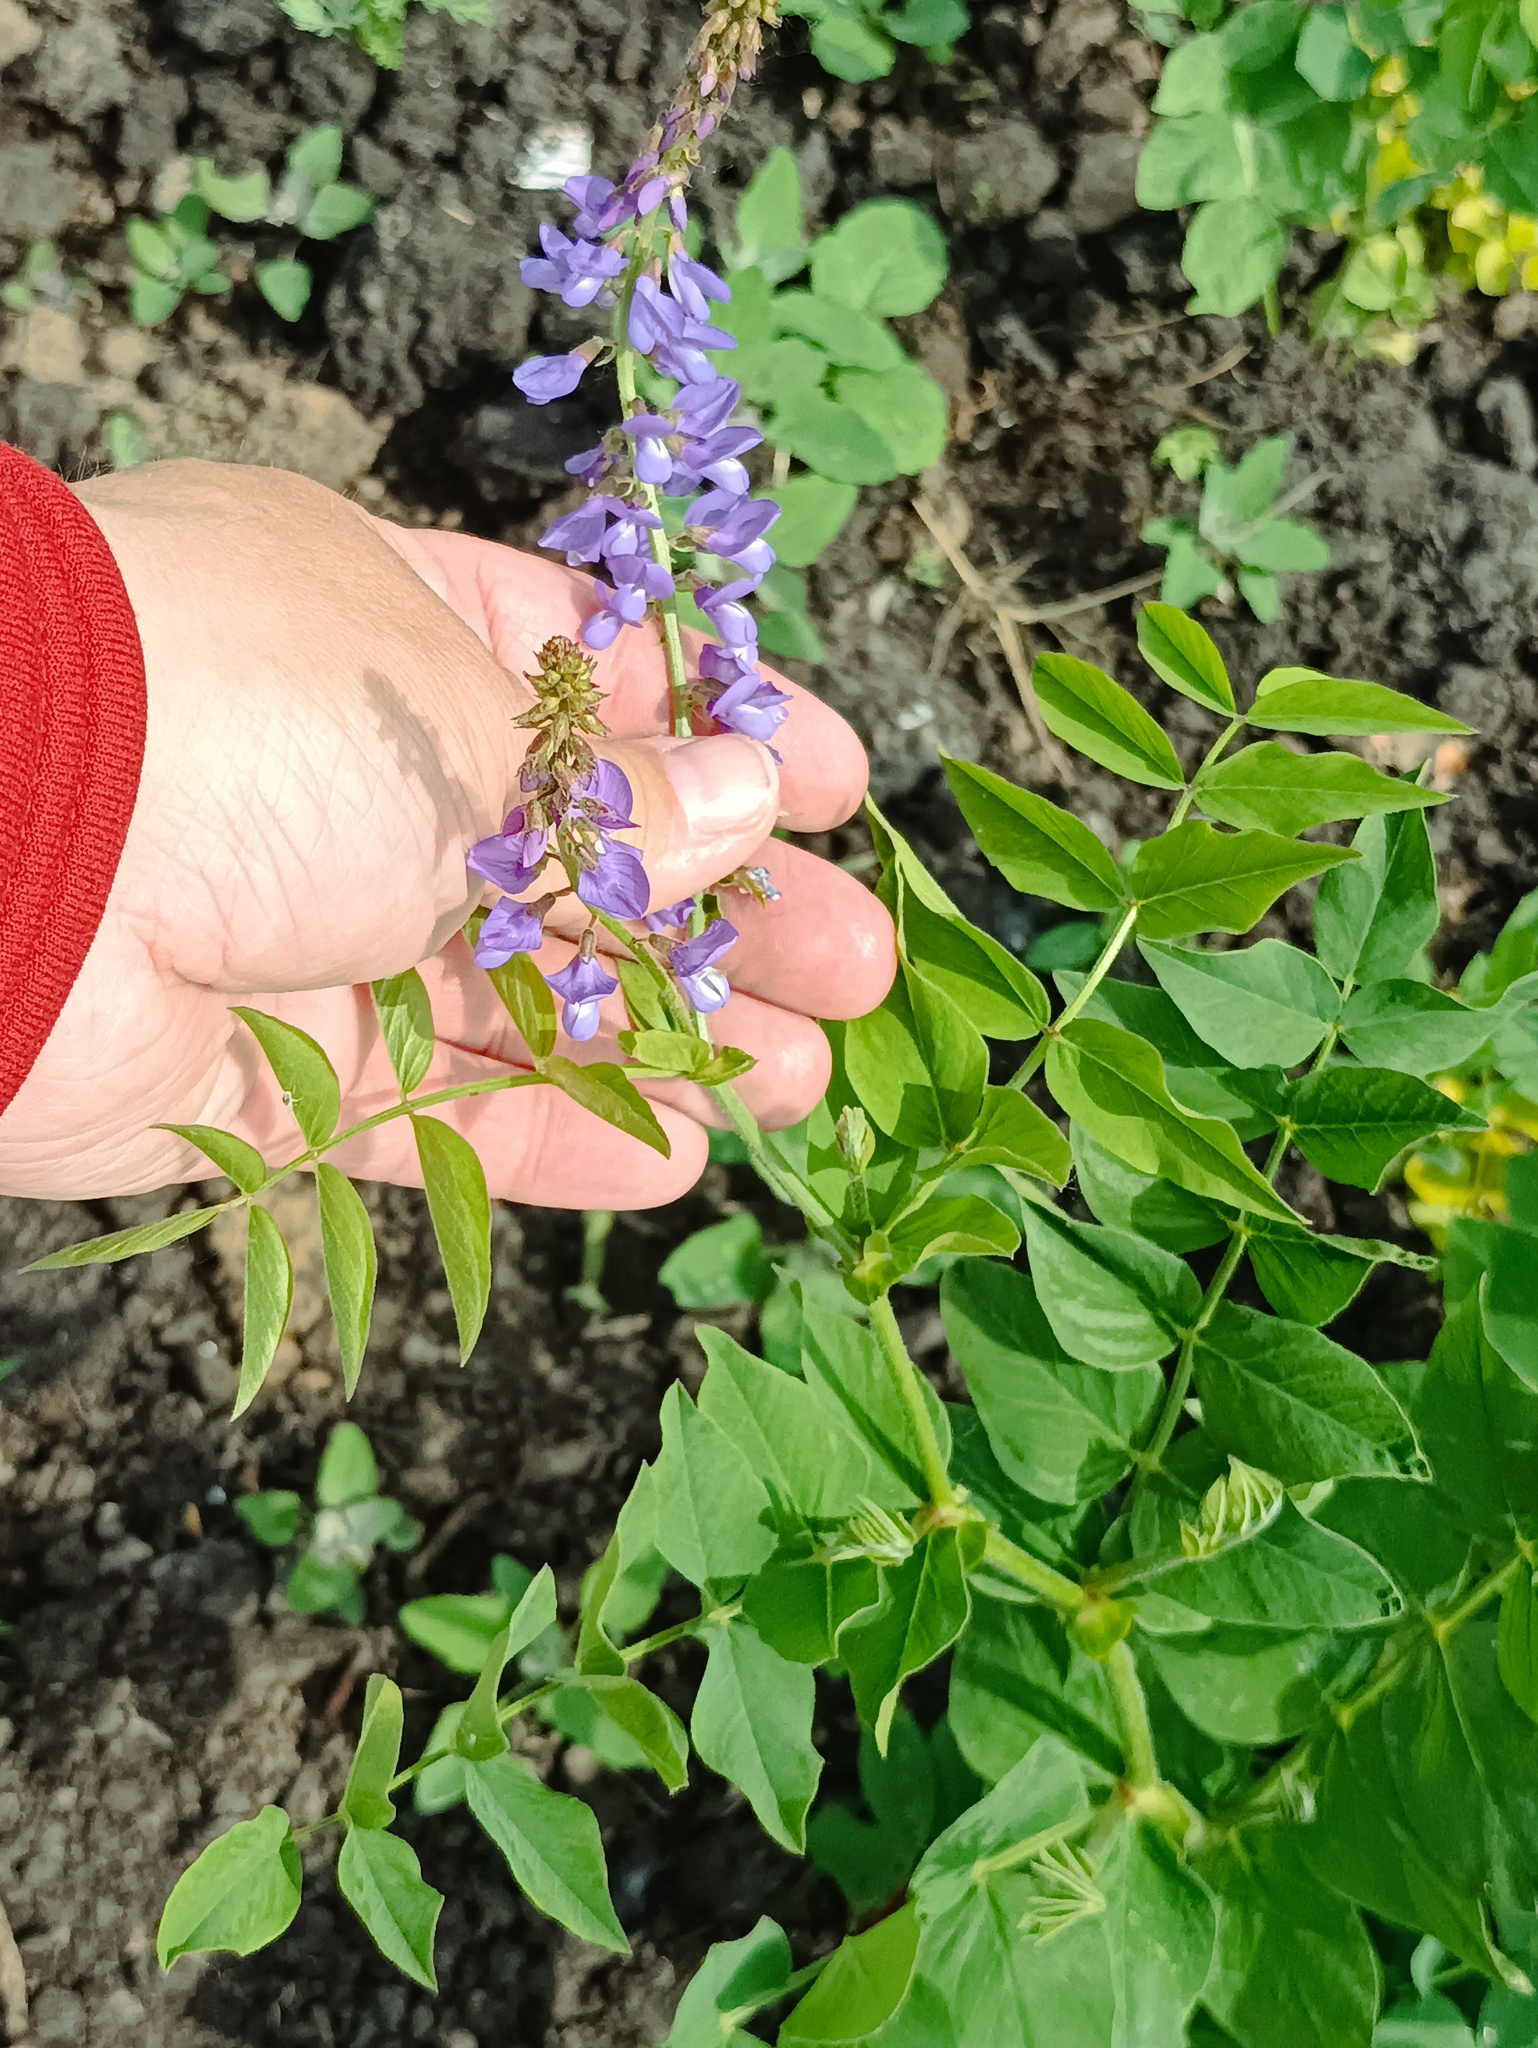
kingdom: Plantae
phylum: Tracheophyta
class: Magnoliopsida
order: Fabales
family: Fabaceae
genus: Galega
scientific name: Galega orientalis
